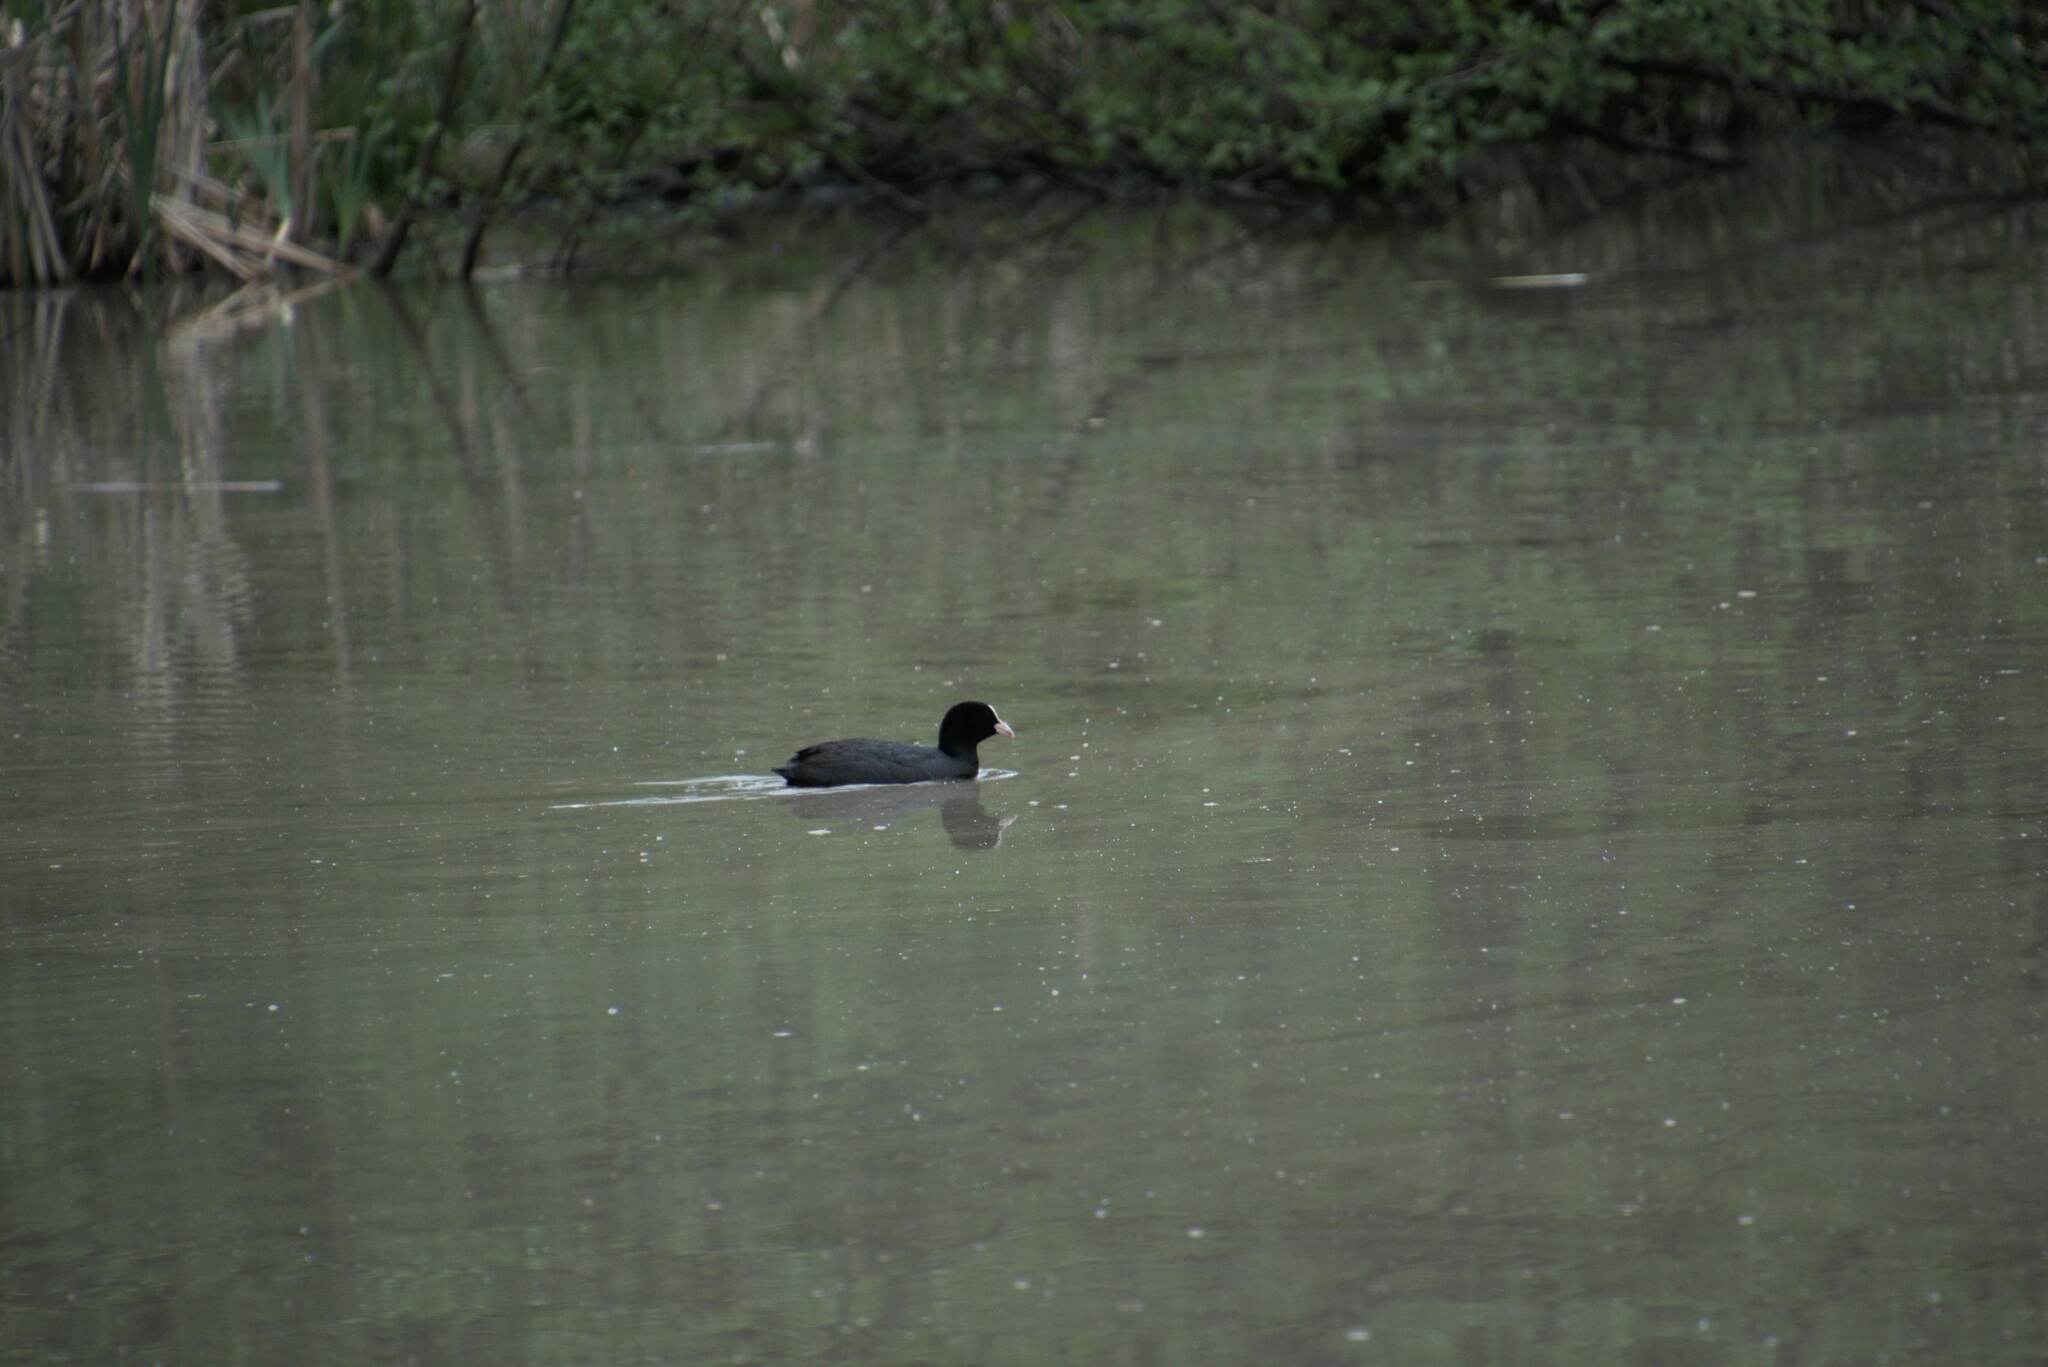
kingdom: Animalia
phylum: Chordata
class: Aves
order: Gruiformes
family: Rallidae
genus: Fulica
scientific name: Fulica atra
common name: Eurasian coot
